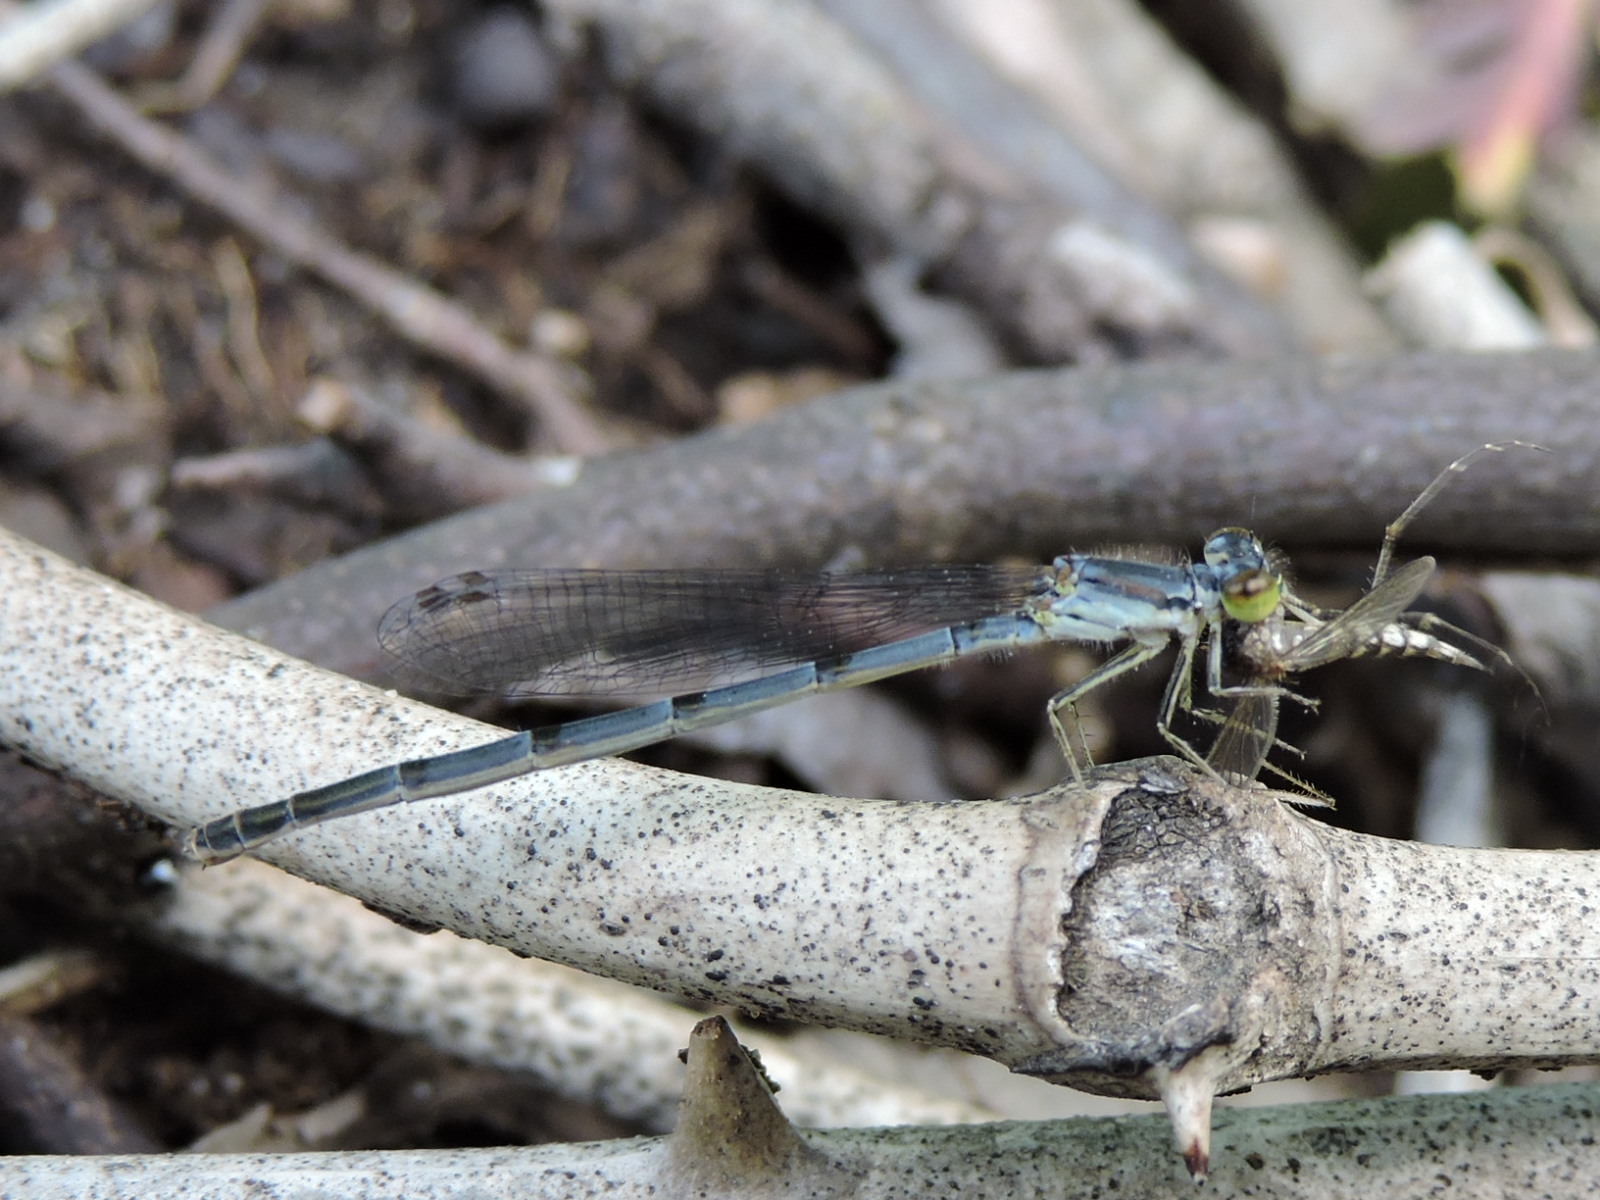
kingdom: Animalia
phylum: Arthropoda
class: Insecta
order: Odonata
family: Coenagrionidae
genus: Ischnura
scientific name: Ischnura posita
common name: Fragile forktail
